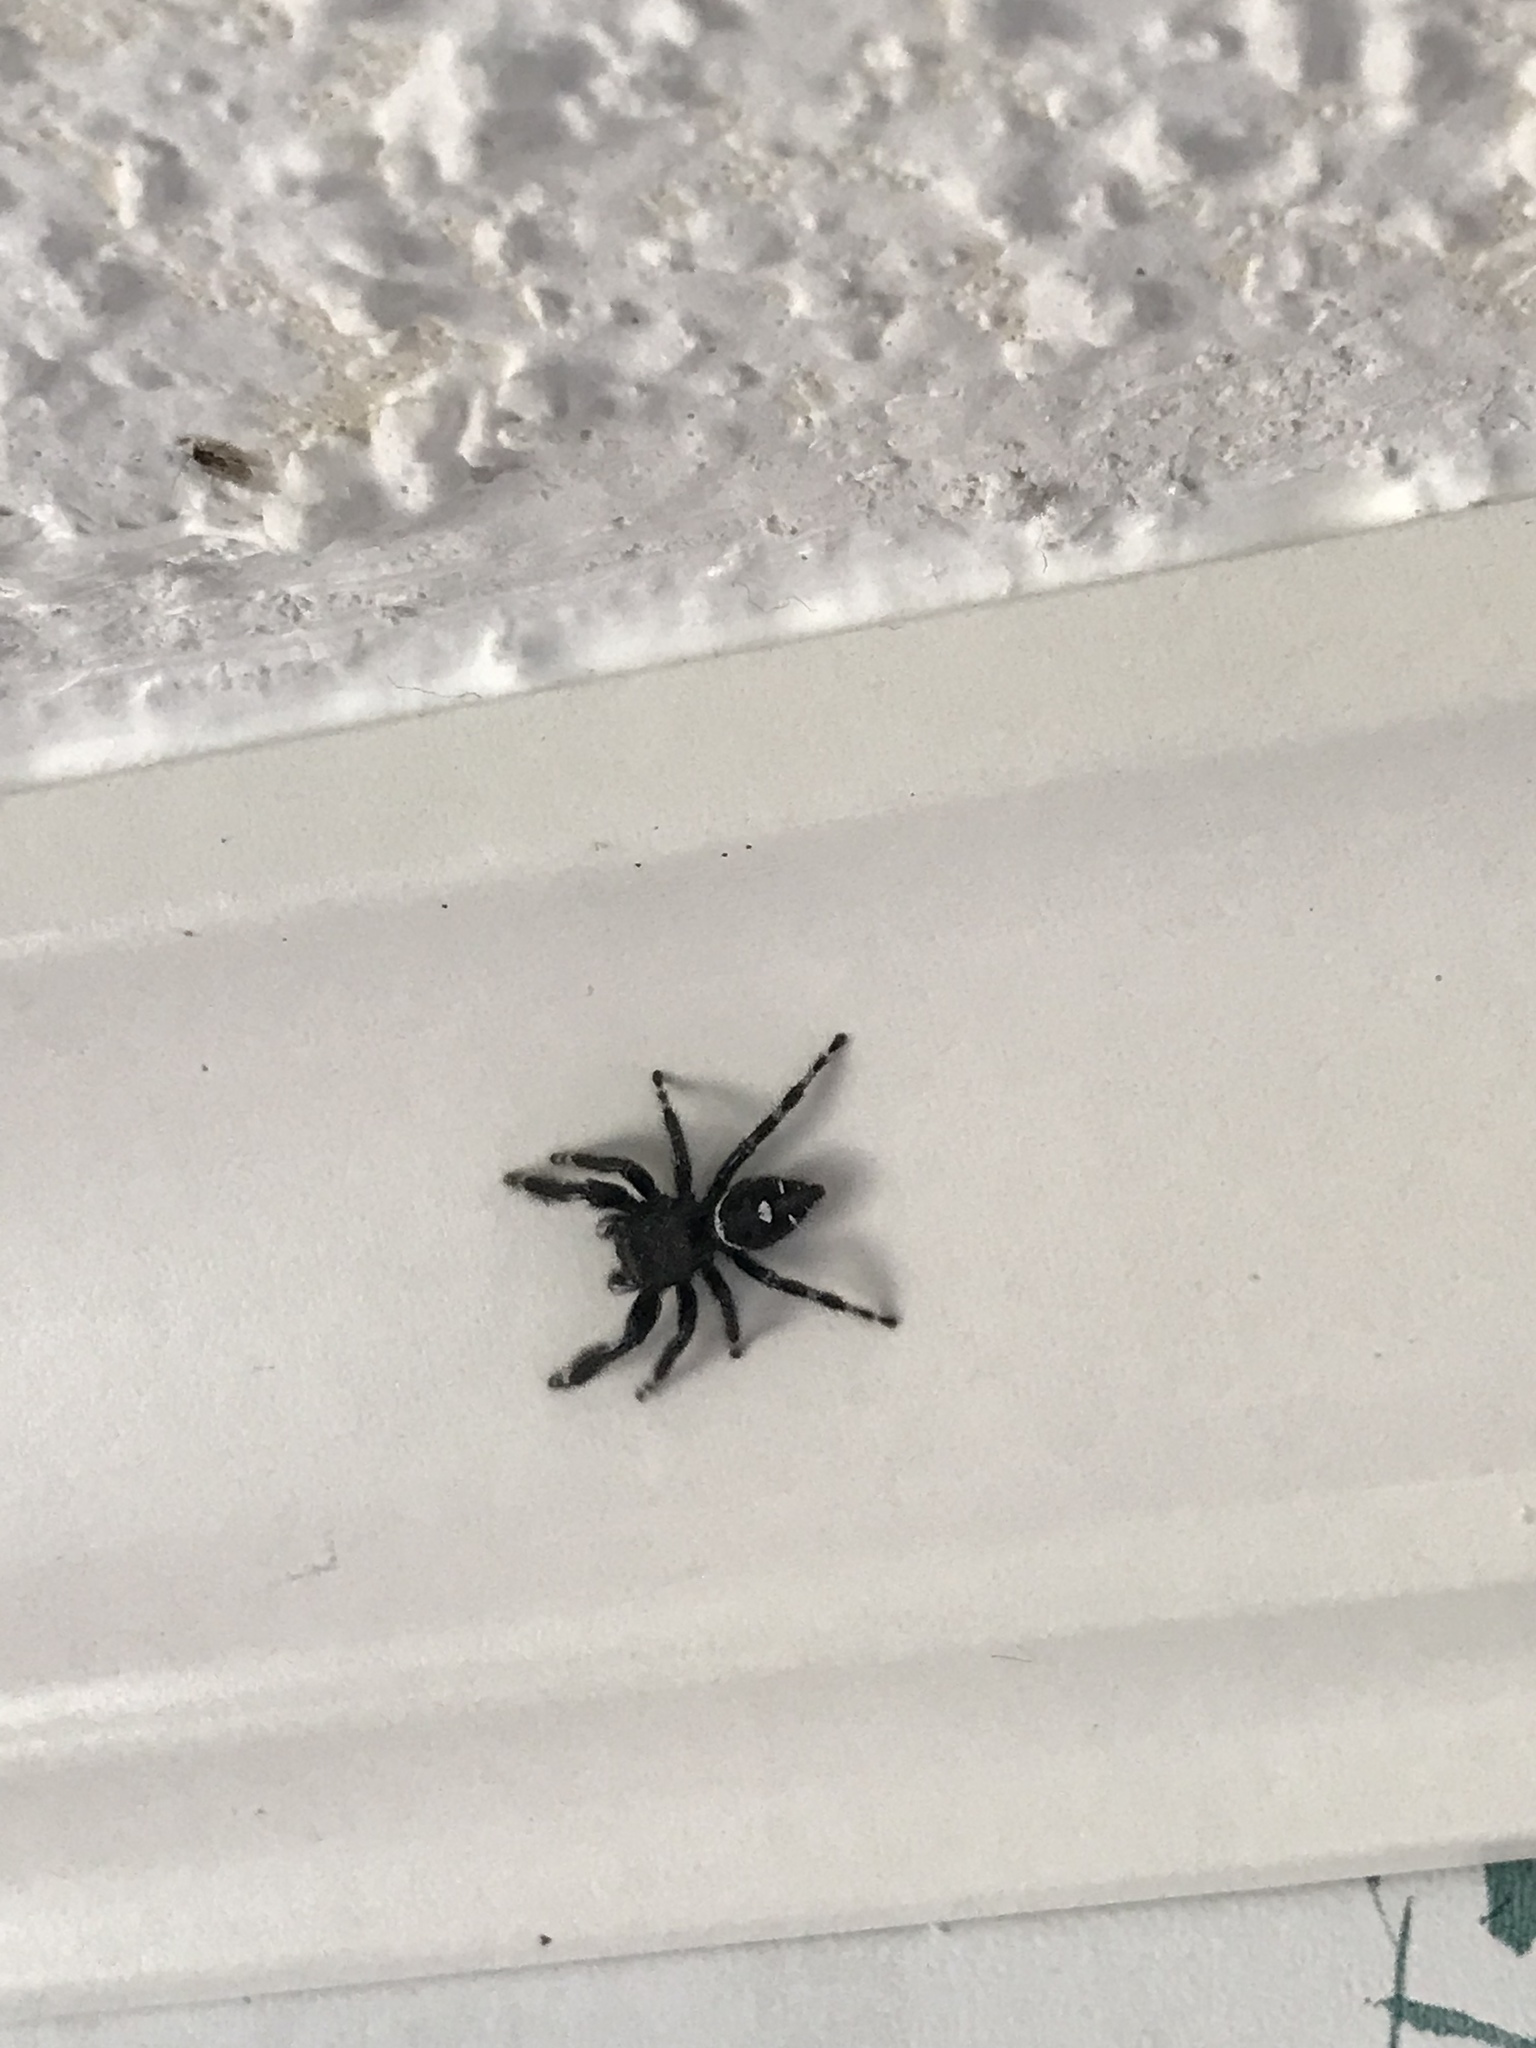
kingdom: Animalia
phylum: Arthropoda
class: Arachnida
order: Araneae
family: Salticidae
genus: Phidippus
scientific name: Phidippus audax
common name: Bold jumper
